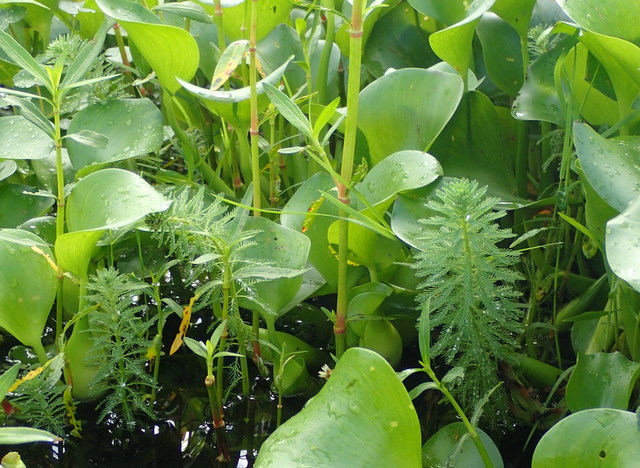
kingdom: Plantae
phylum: Tracheophyta
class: Magnoliopsida
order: Saxifragales
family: Haloragaceae
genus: Myriophyllum
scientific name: Myriophyllum aquaticum
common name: Parrot's feather
